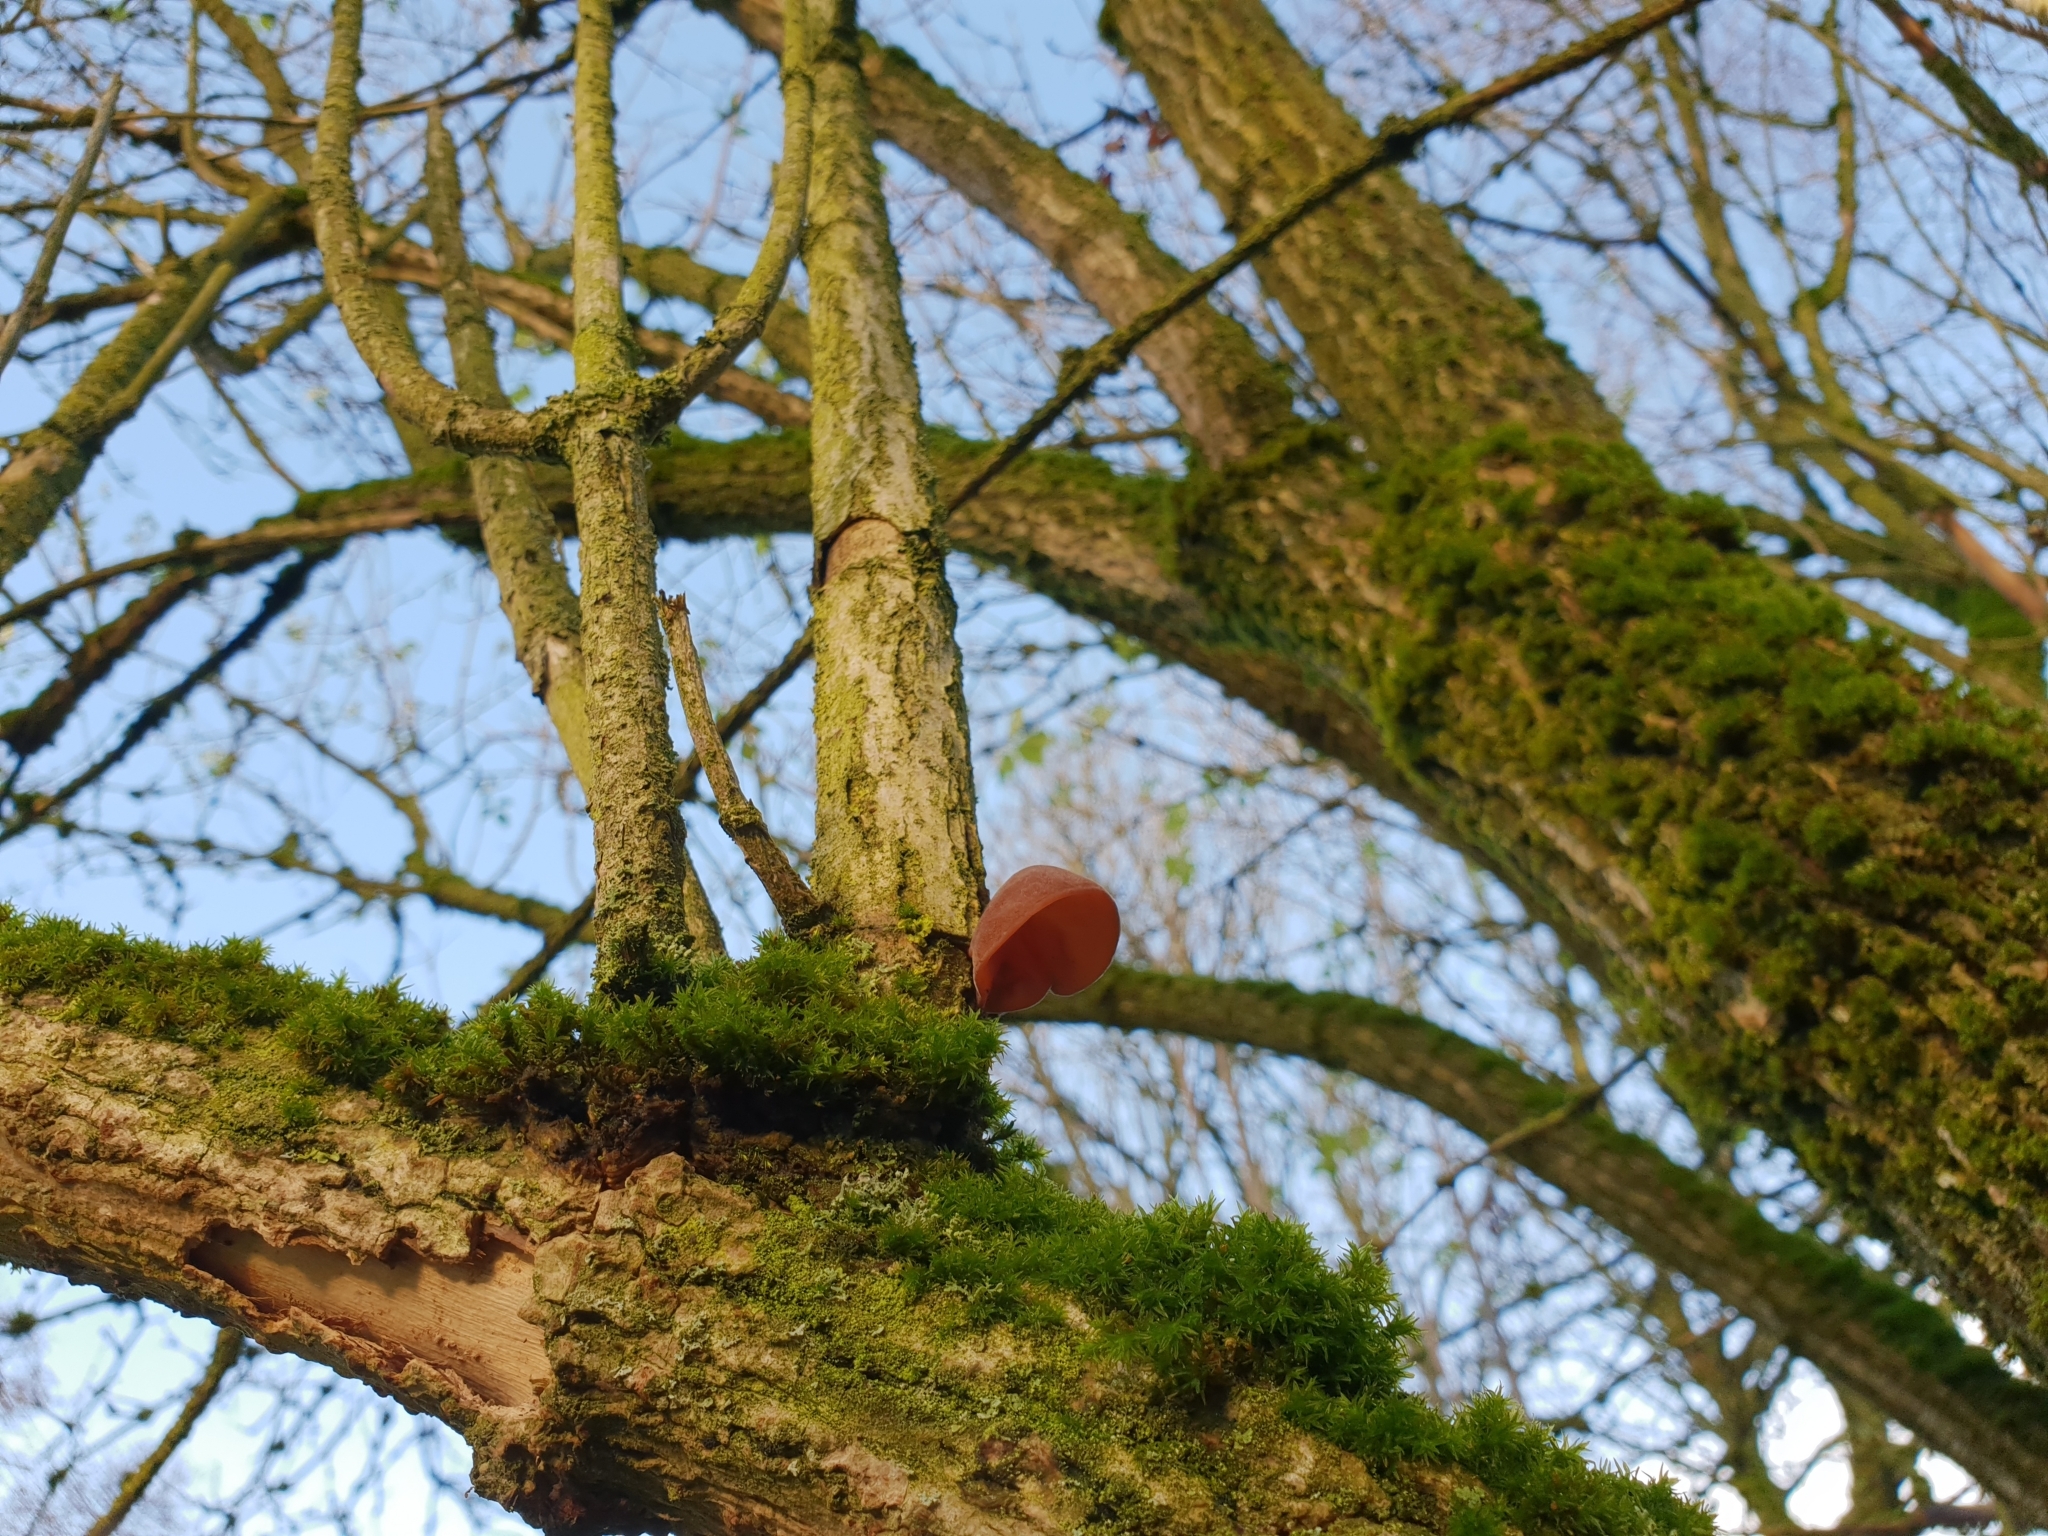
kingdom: Fungi
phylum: Basidiomycota
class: Agaricomycetes
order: Auriculariales
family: Auriculariaceae
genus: Auricularia
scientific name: Auricularia auricula-judae
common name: Jelly ear
